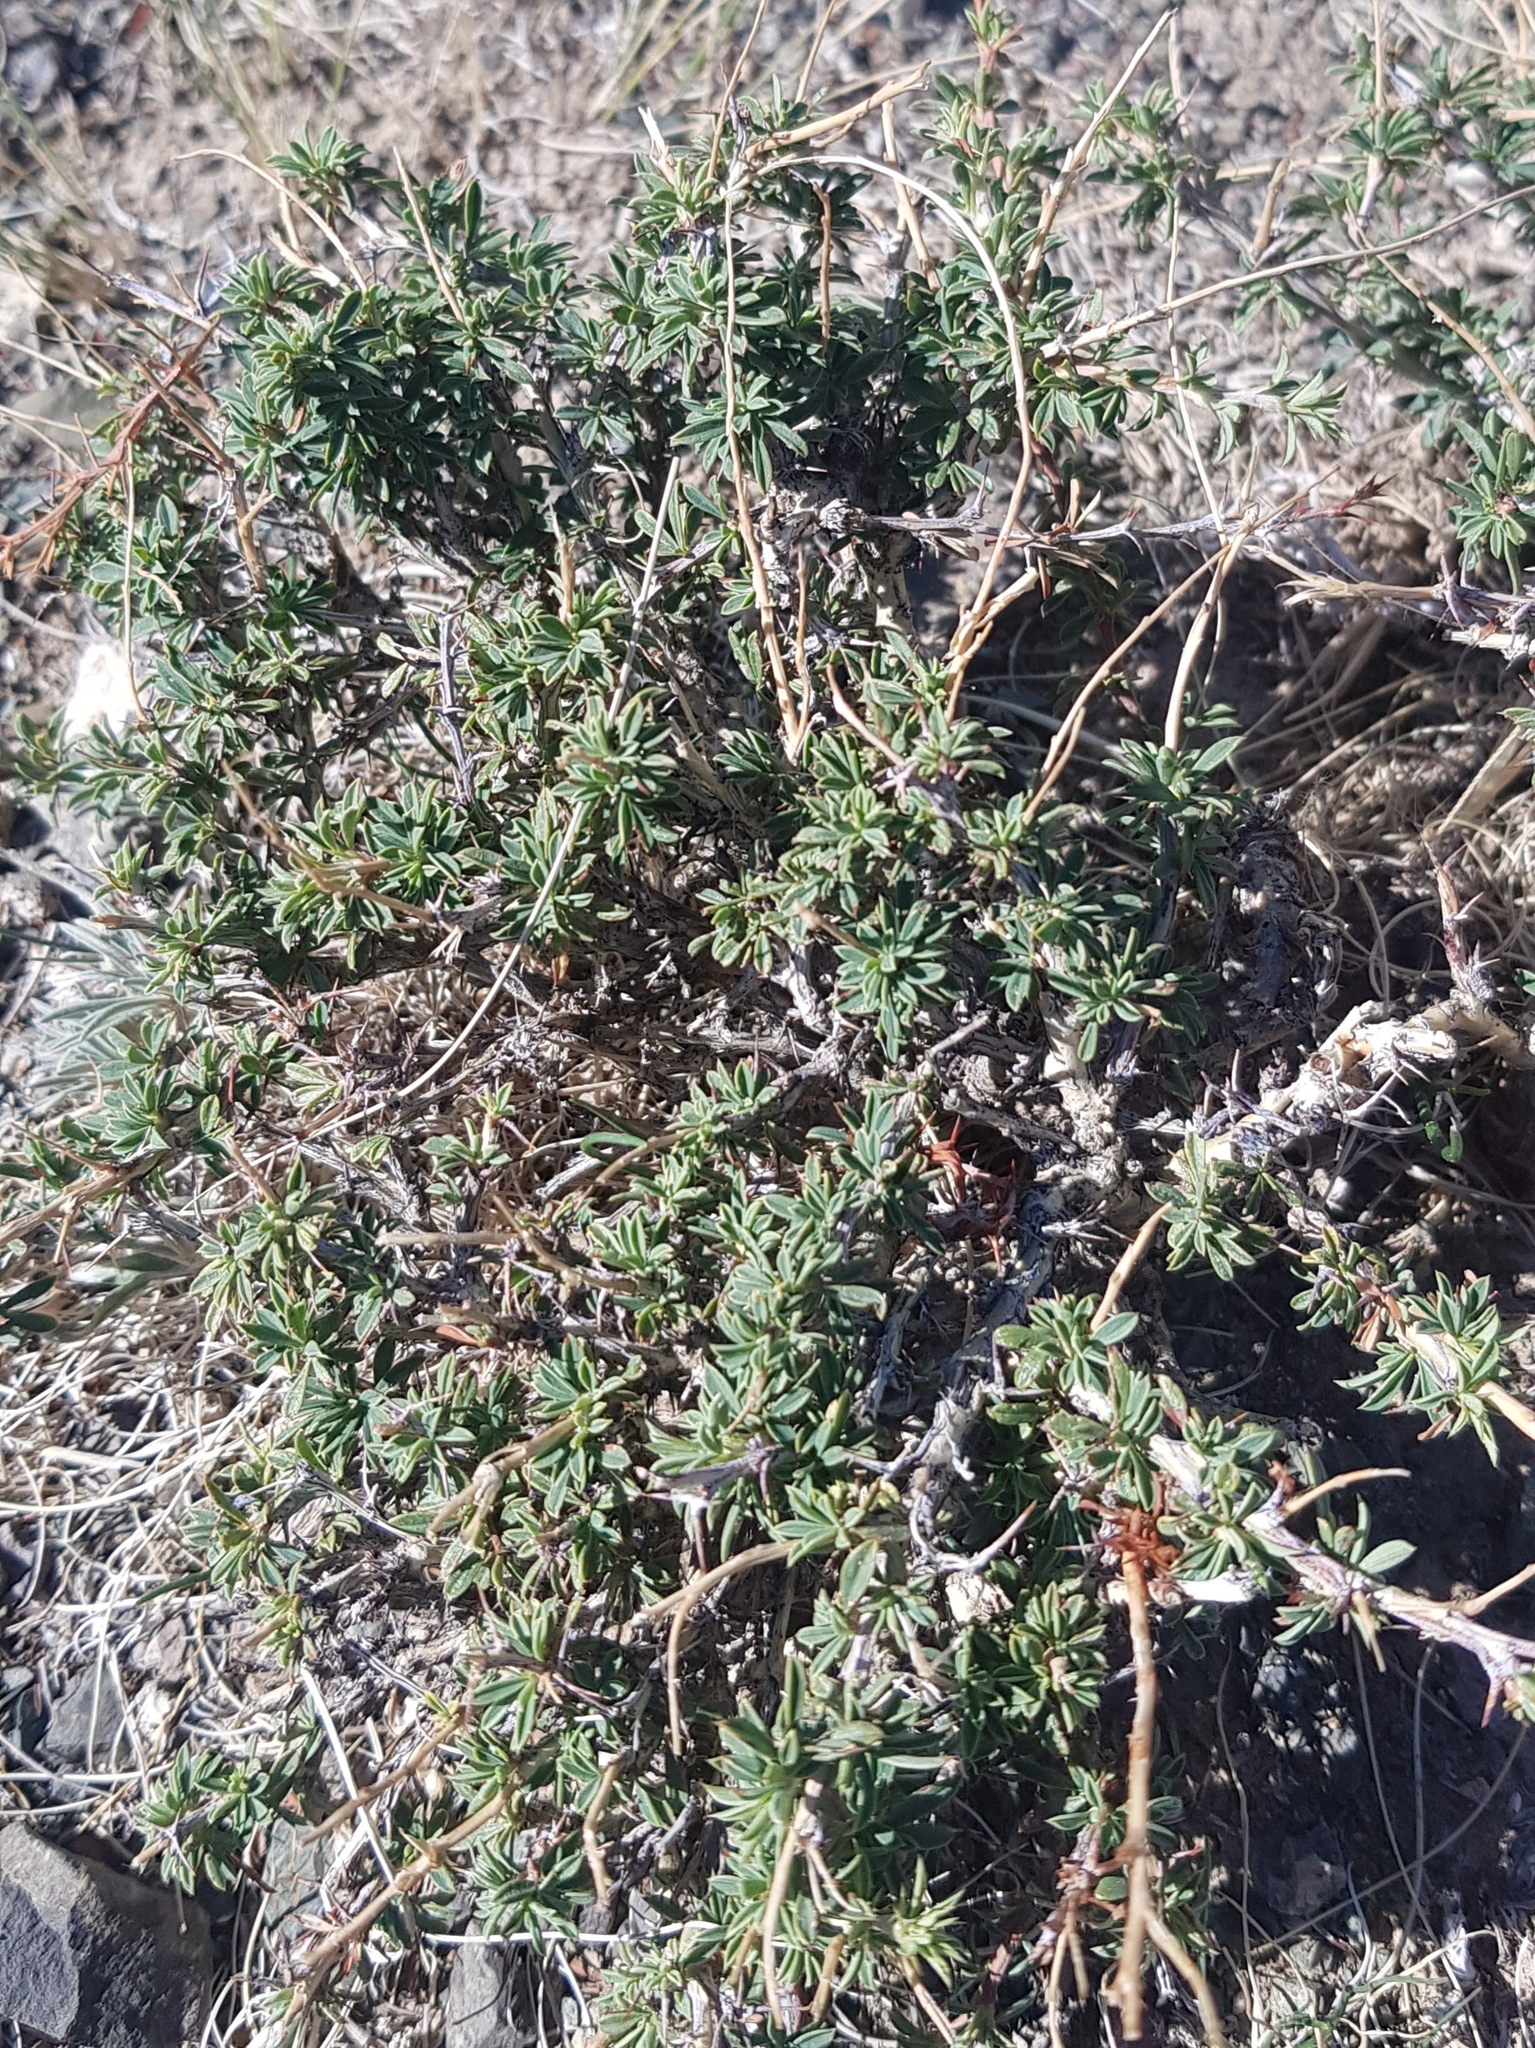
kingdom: Plantae
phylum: Tracheophyta
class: Magnoliopsida
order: Fabales
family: Fabaceae
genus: Caragana
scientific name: Caragana pygmaea
